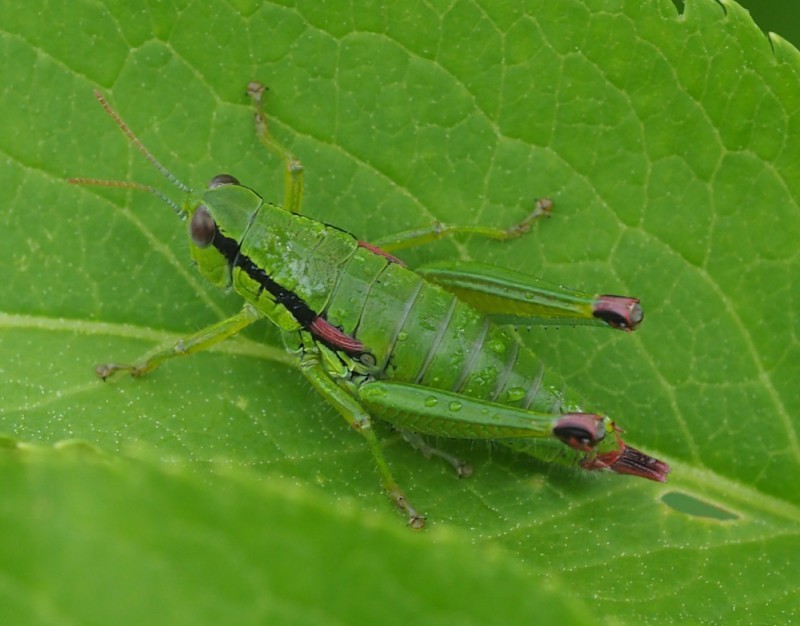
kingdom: Animalia
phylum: Arthropoda
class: Insecta
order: Orthoptera
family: Acrididae
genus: Odontopodisma
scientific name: Odontopodisma decipiens
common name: Cheating mountain grasshopper
